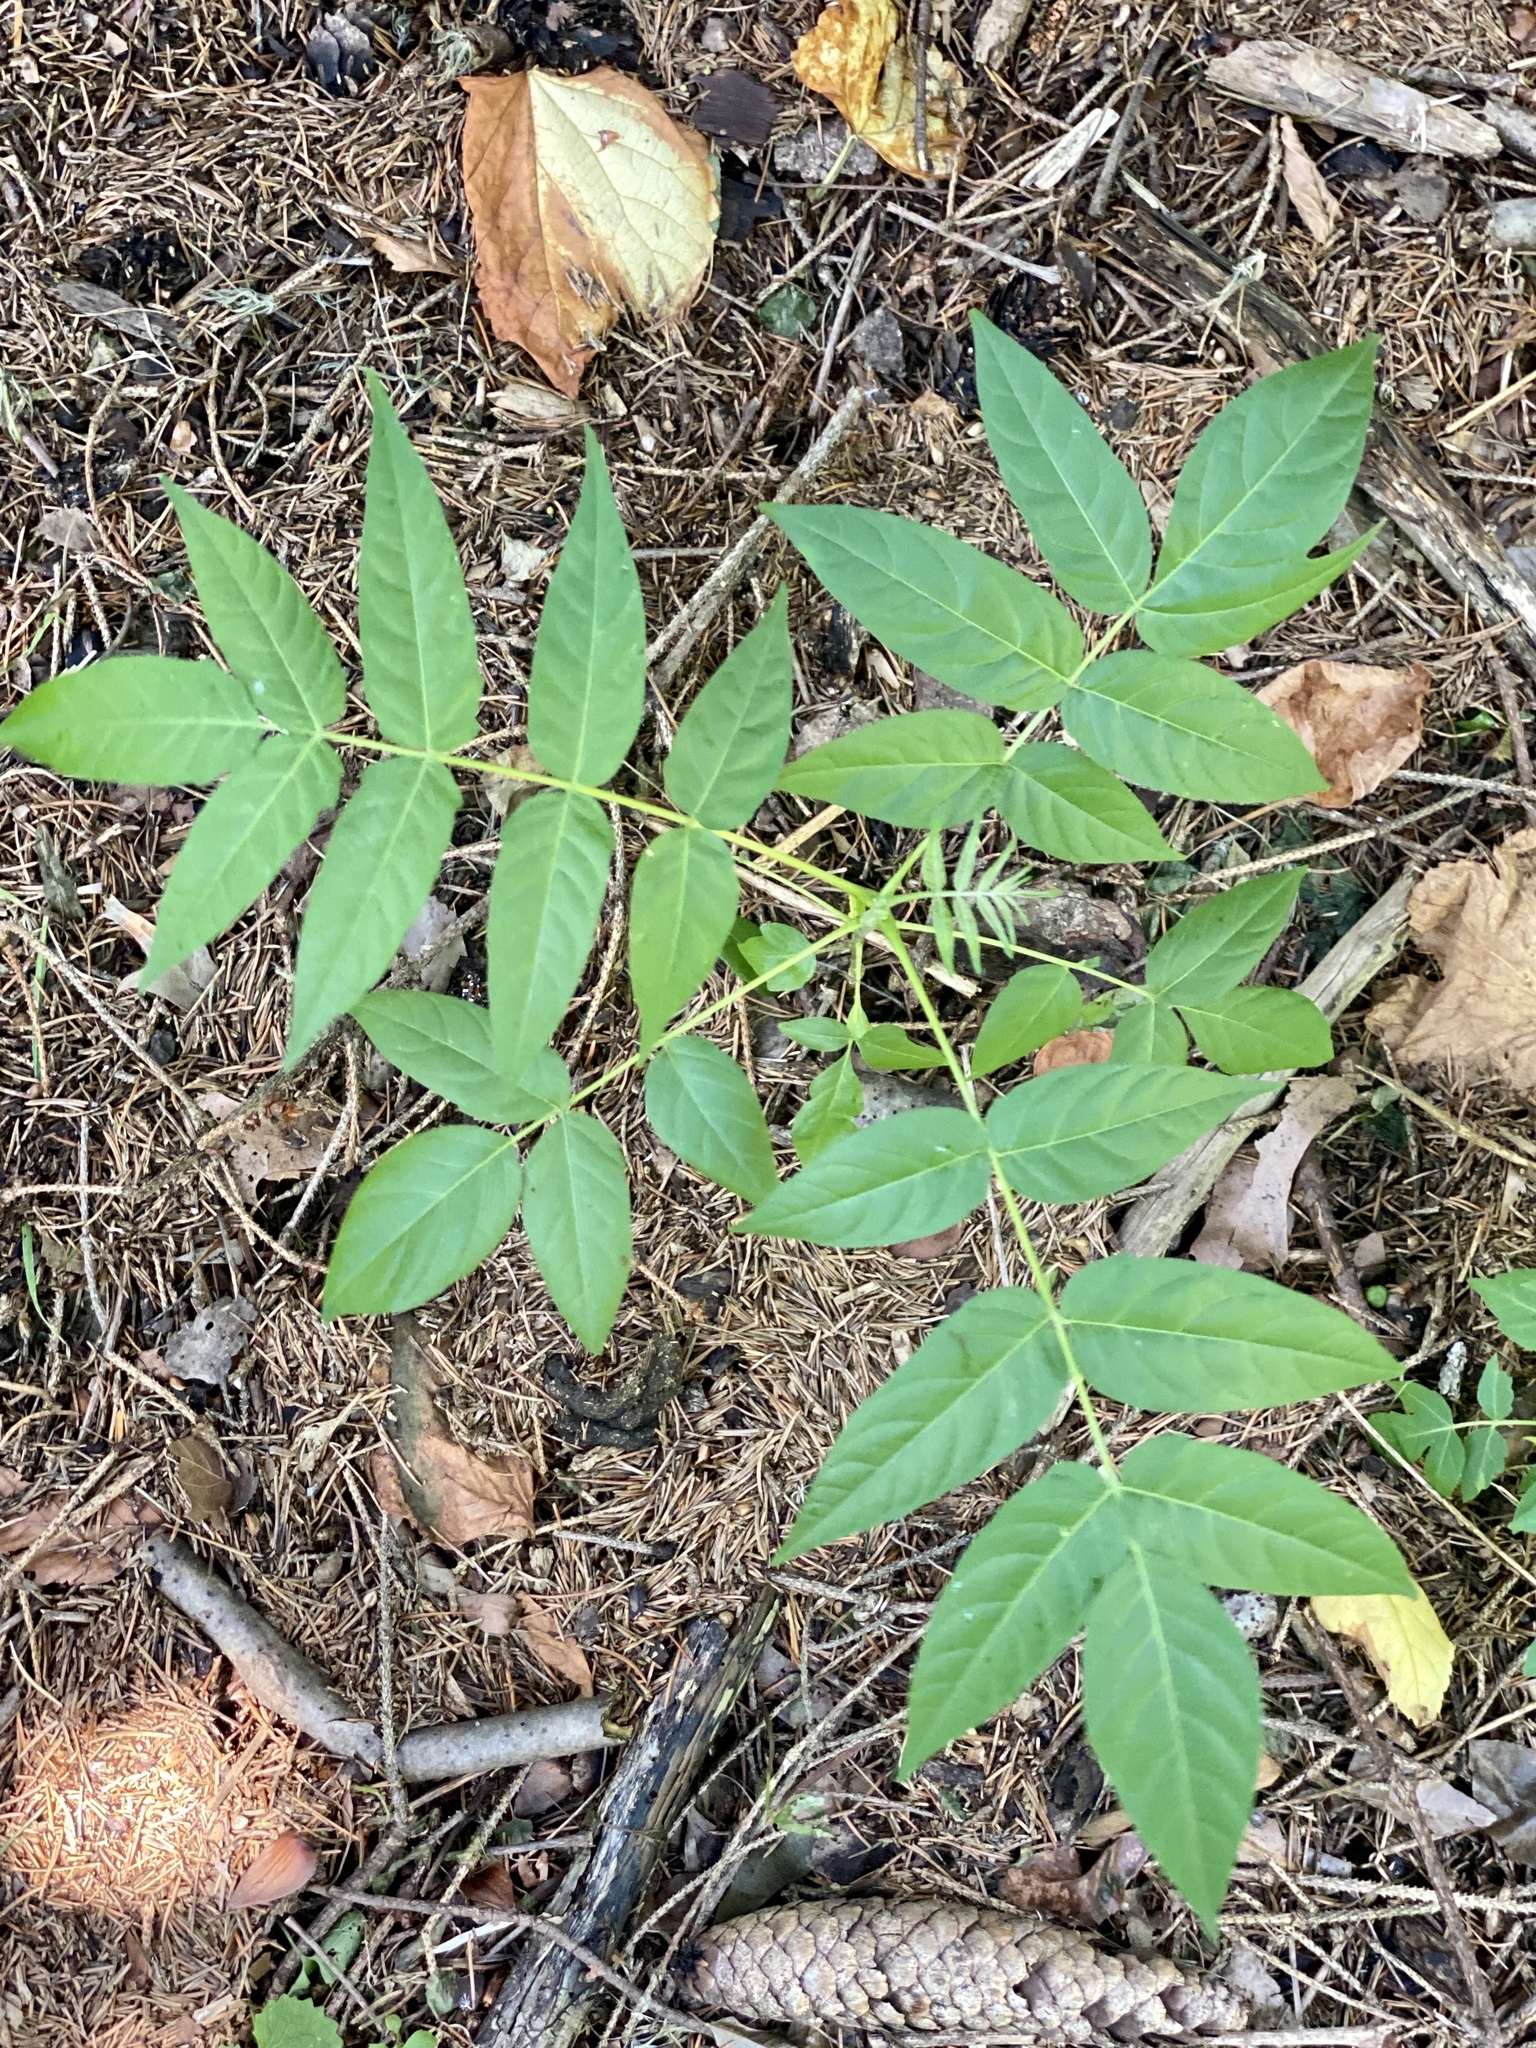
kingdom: Plantae
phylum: Tracheophyta
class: Magnoliopsida
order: Sapindales
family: Simaroubaceae
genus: Ailanthus
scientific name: Ailanthus altissima
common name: Tree-of-heaven
